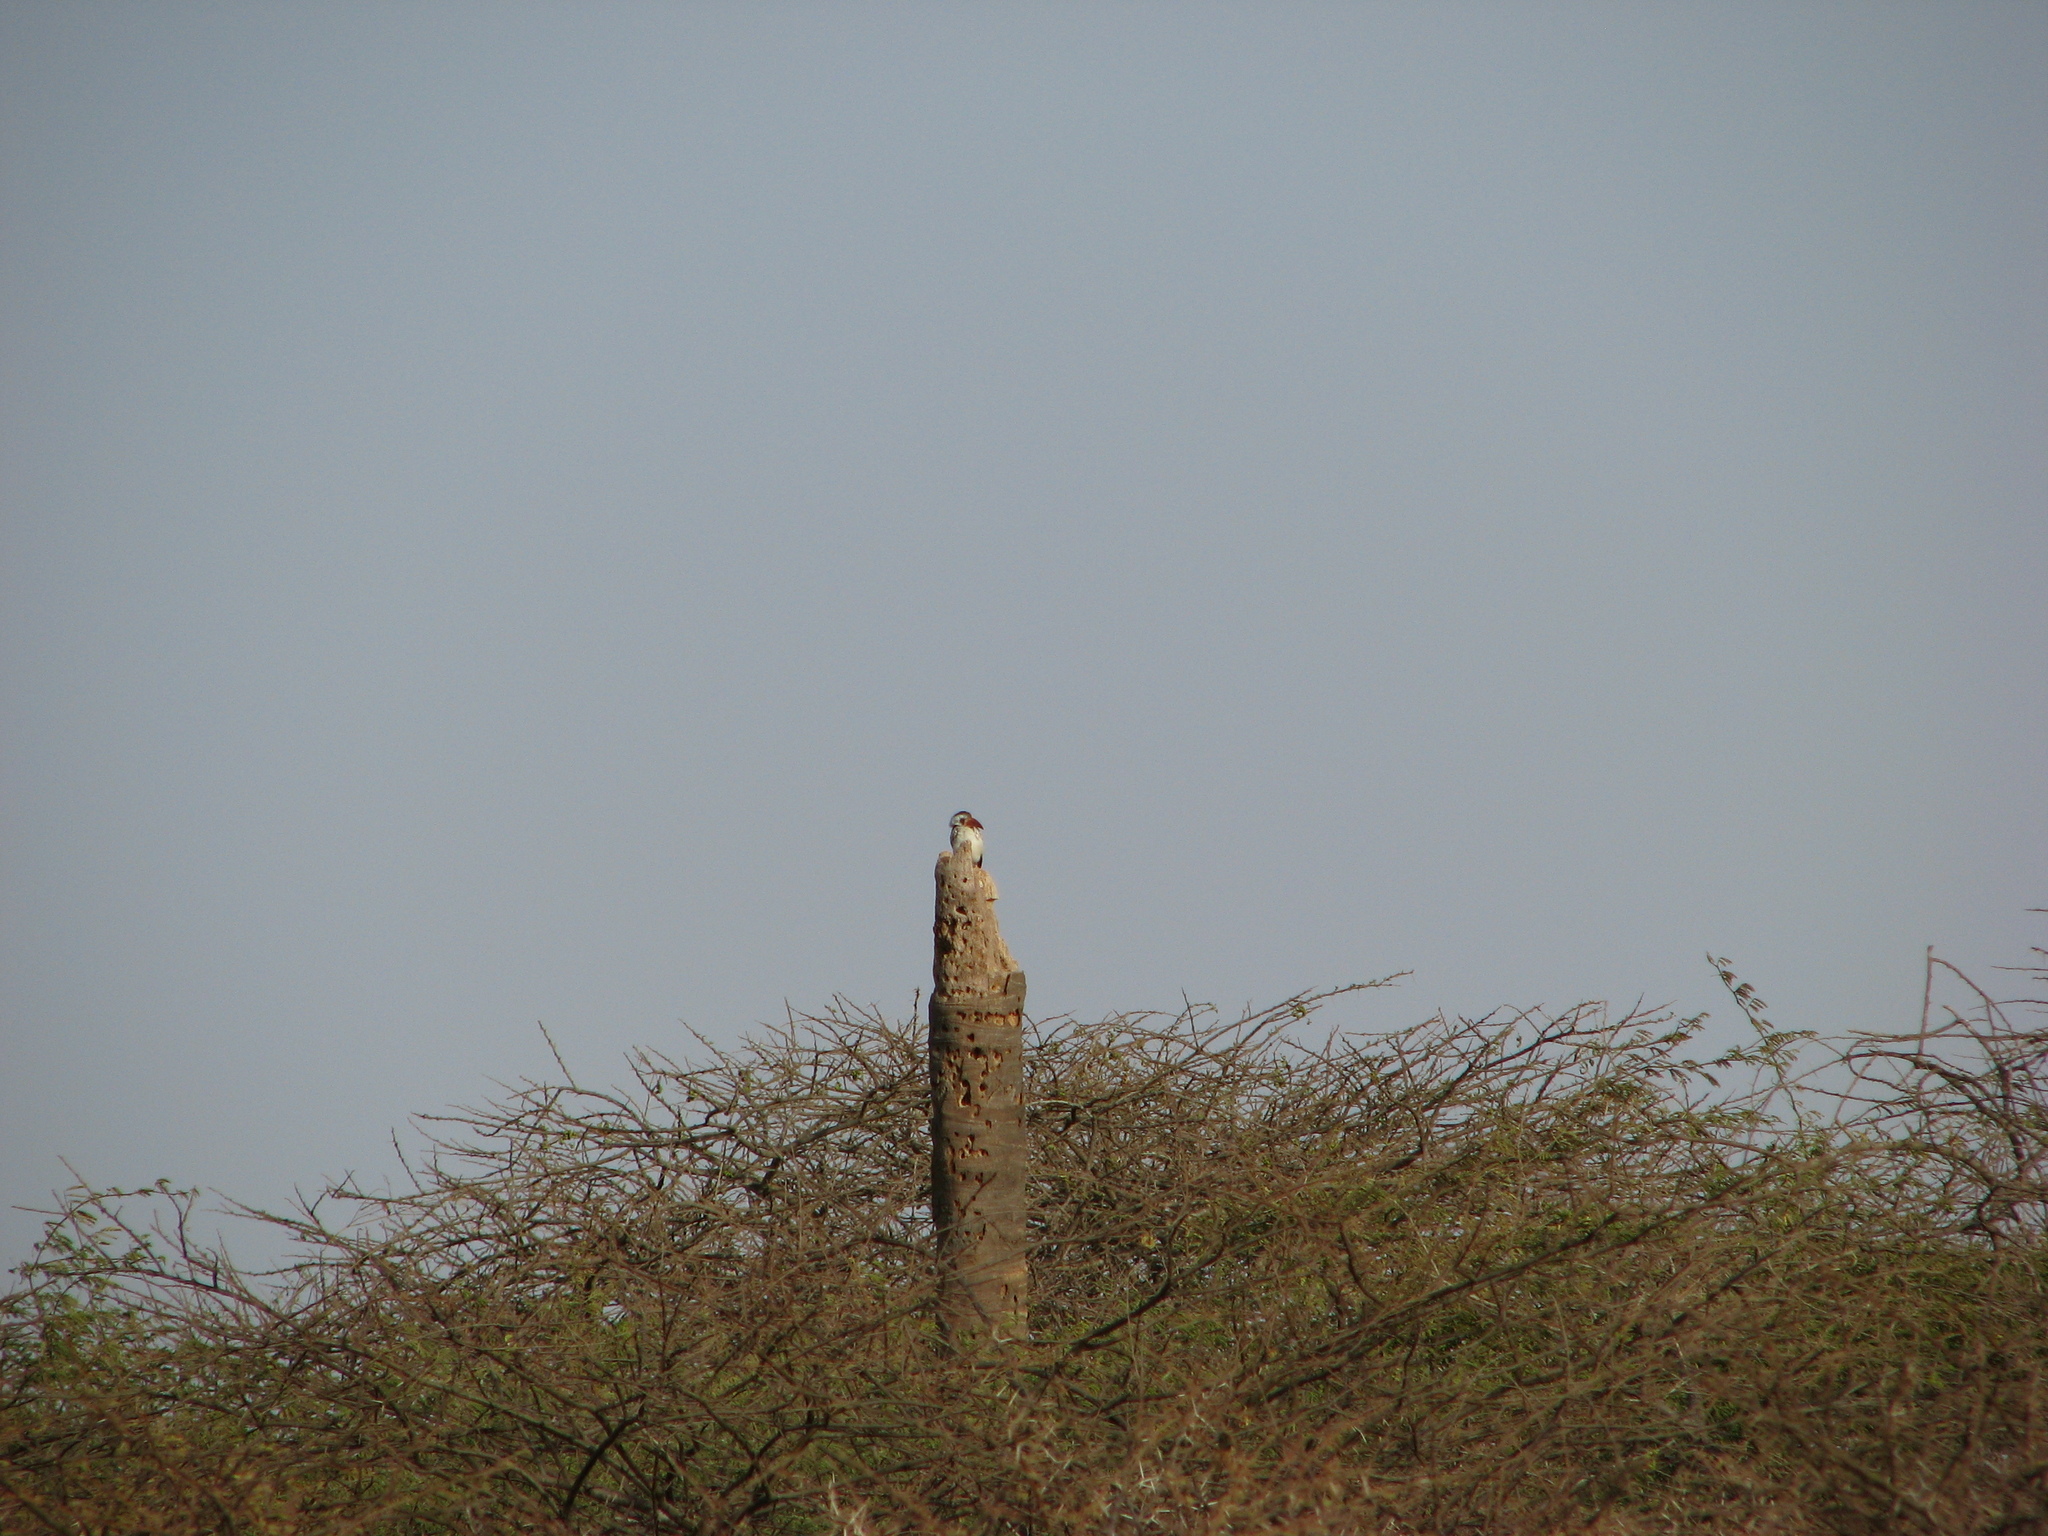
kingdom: Animalia
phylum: Chordata
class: Aves
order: Bucerotiformes
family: Bucerotidae
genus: Tockus
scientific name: Tockus kempi
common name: Western red-billed hornbill
